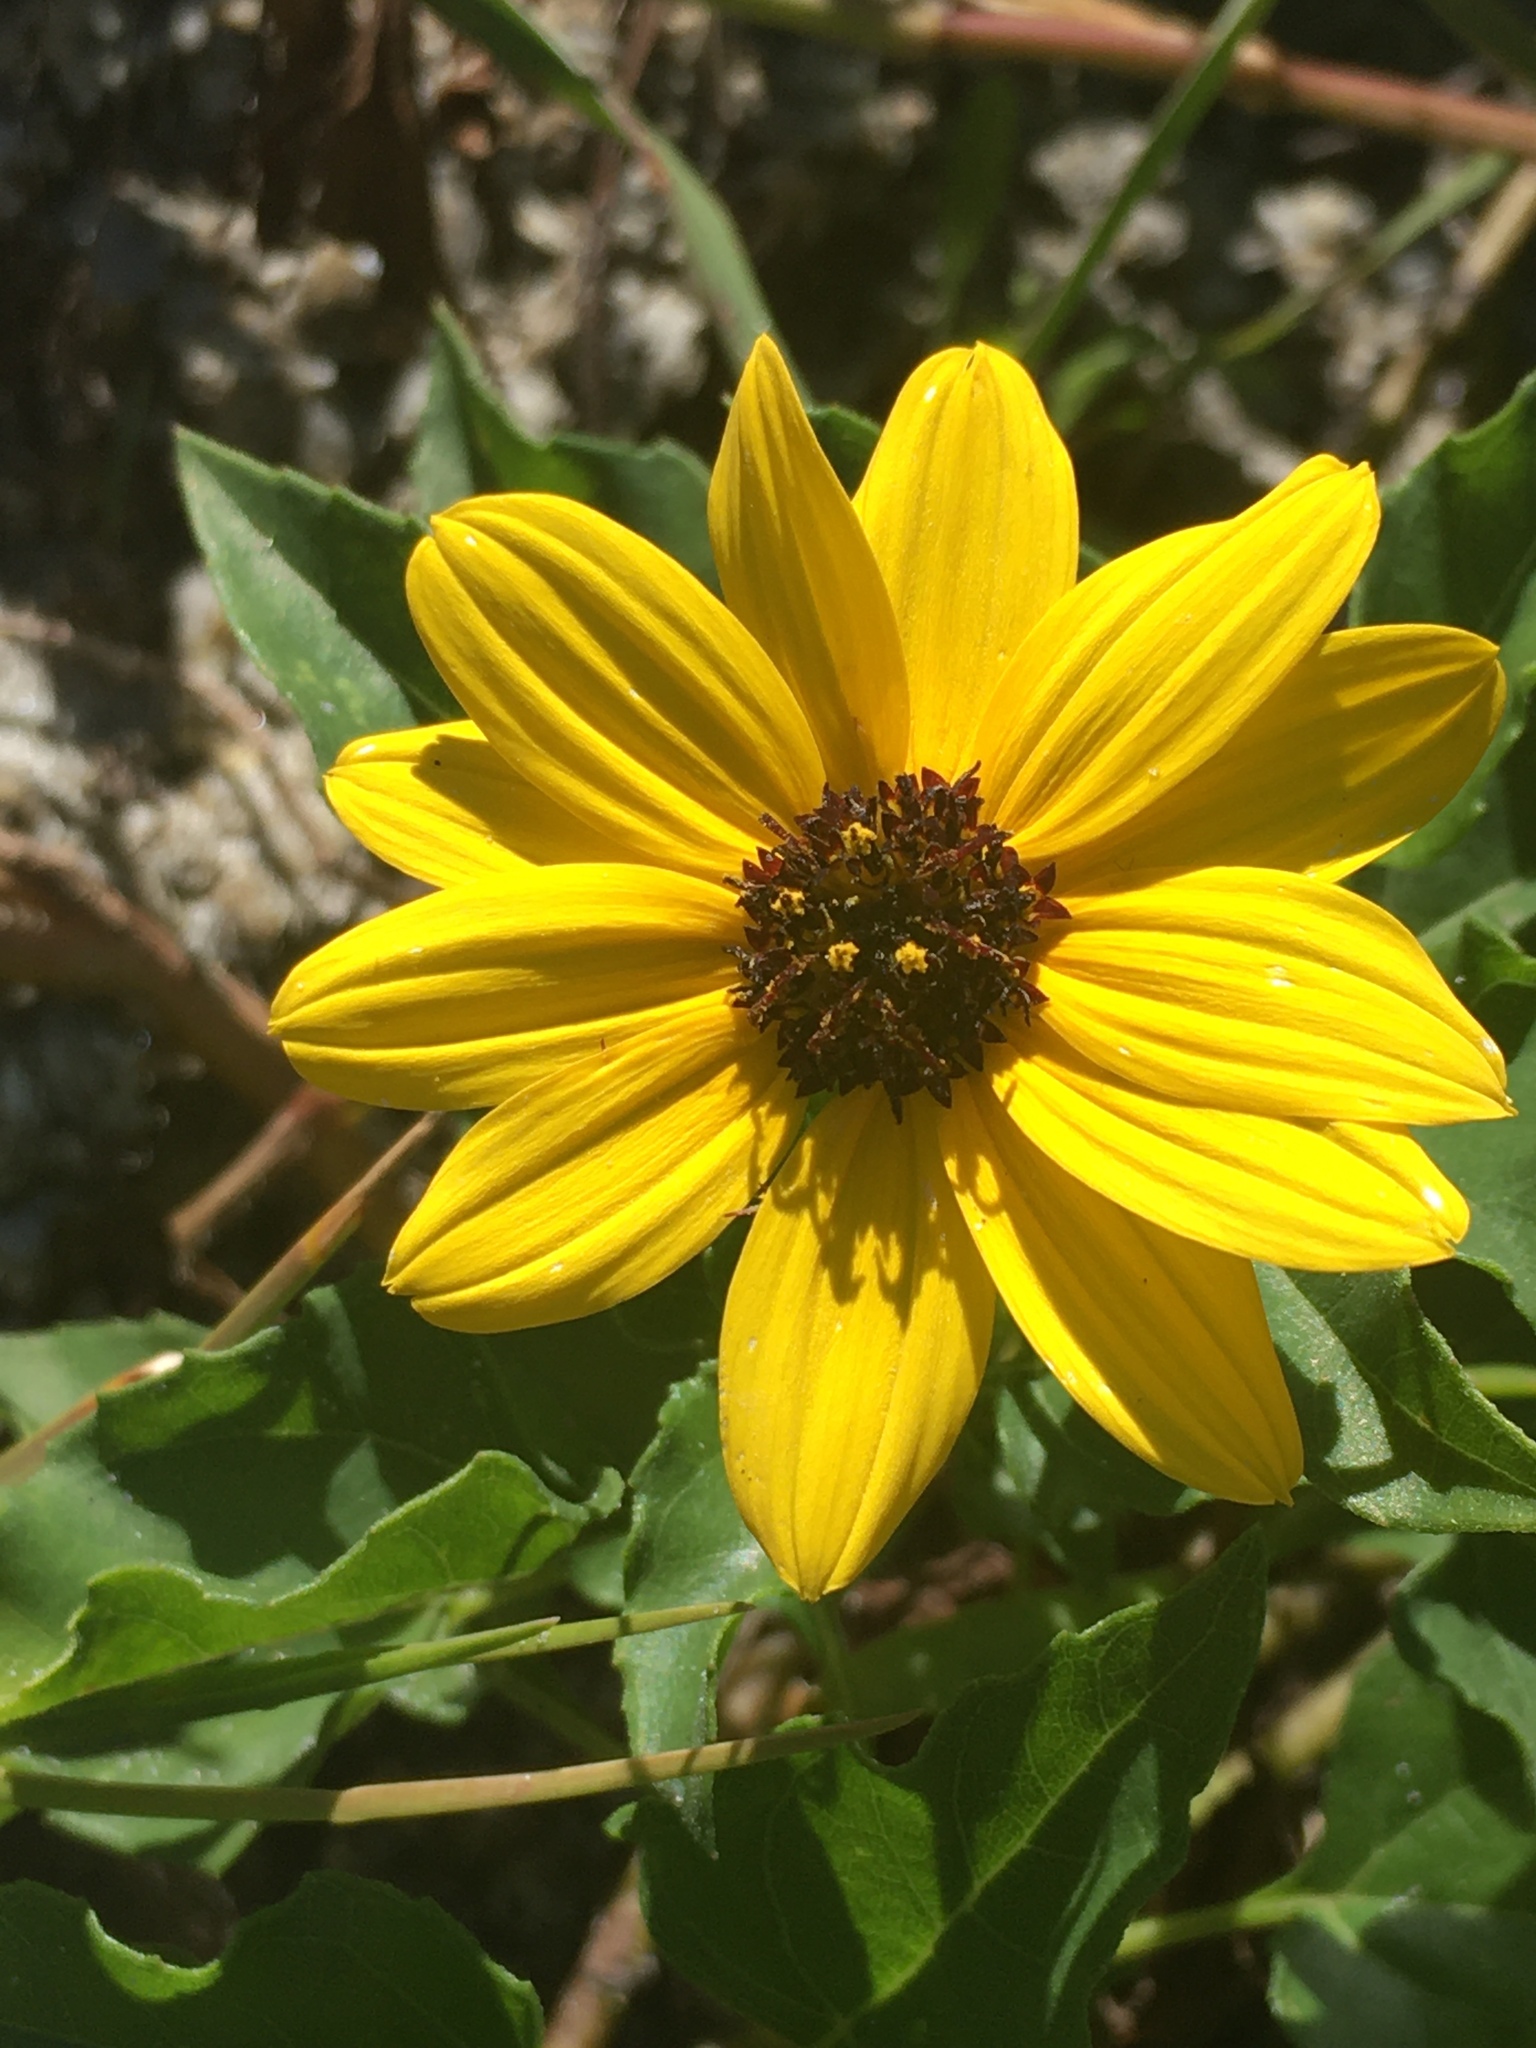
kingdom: Plantae
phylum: Tracheophyta
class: Magnoliopsida
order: Asterales
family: Asteraceae
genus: Helianthus
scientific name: Helianthus debilis
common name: Weak sunflower
